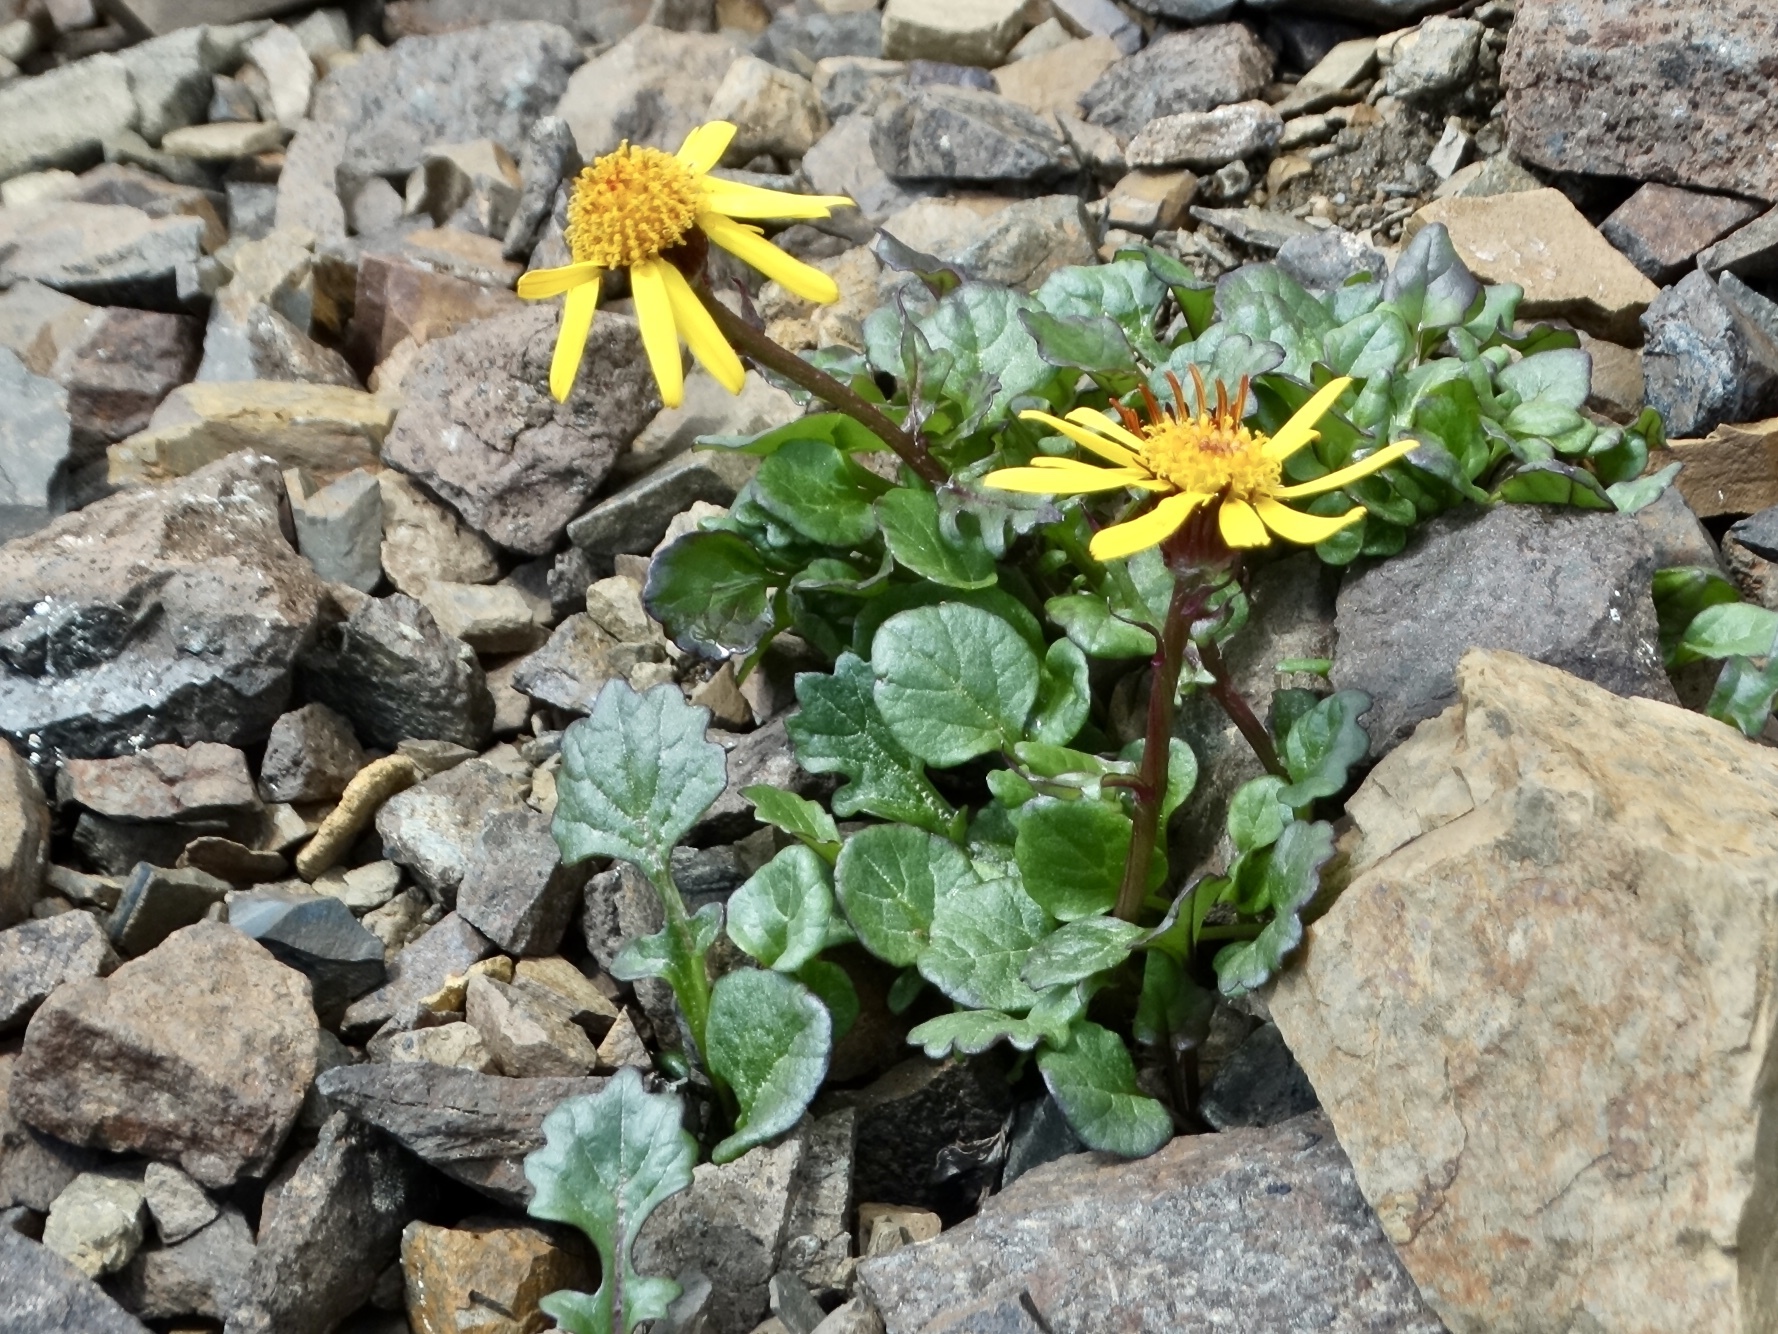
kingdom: Plantae
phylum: Tracheophyta
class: Magnoliopsida
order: Asterales
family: Asteraceae
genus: Packera
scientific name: Packera cymbalaria
